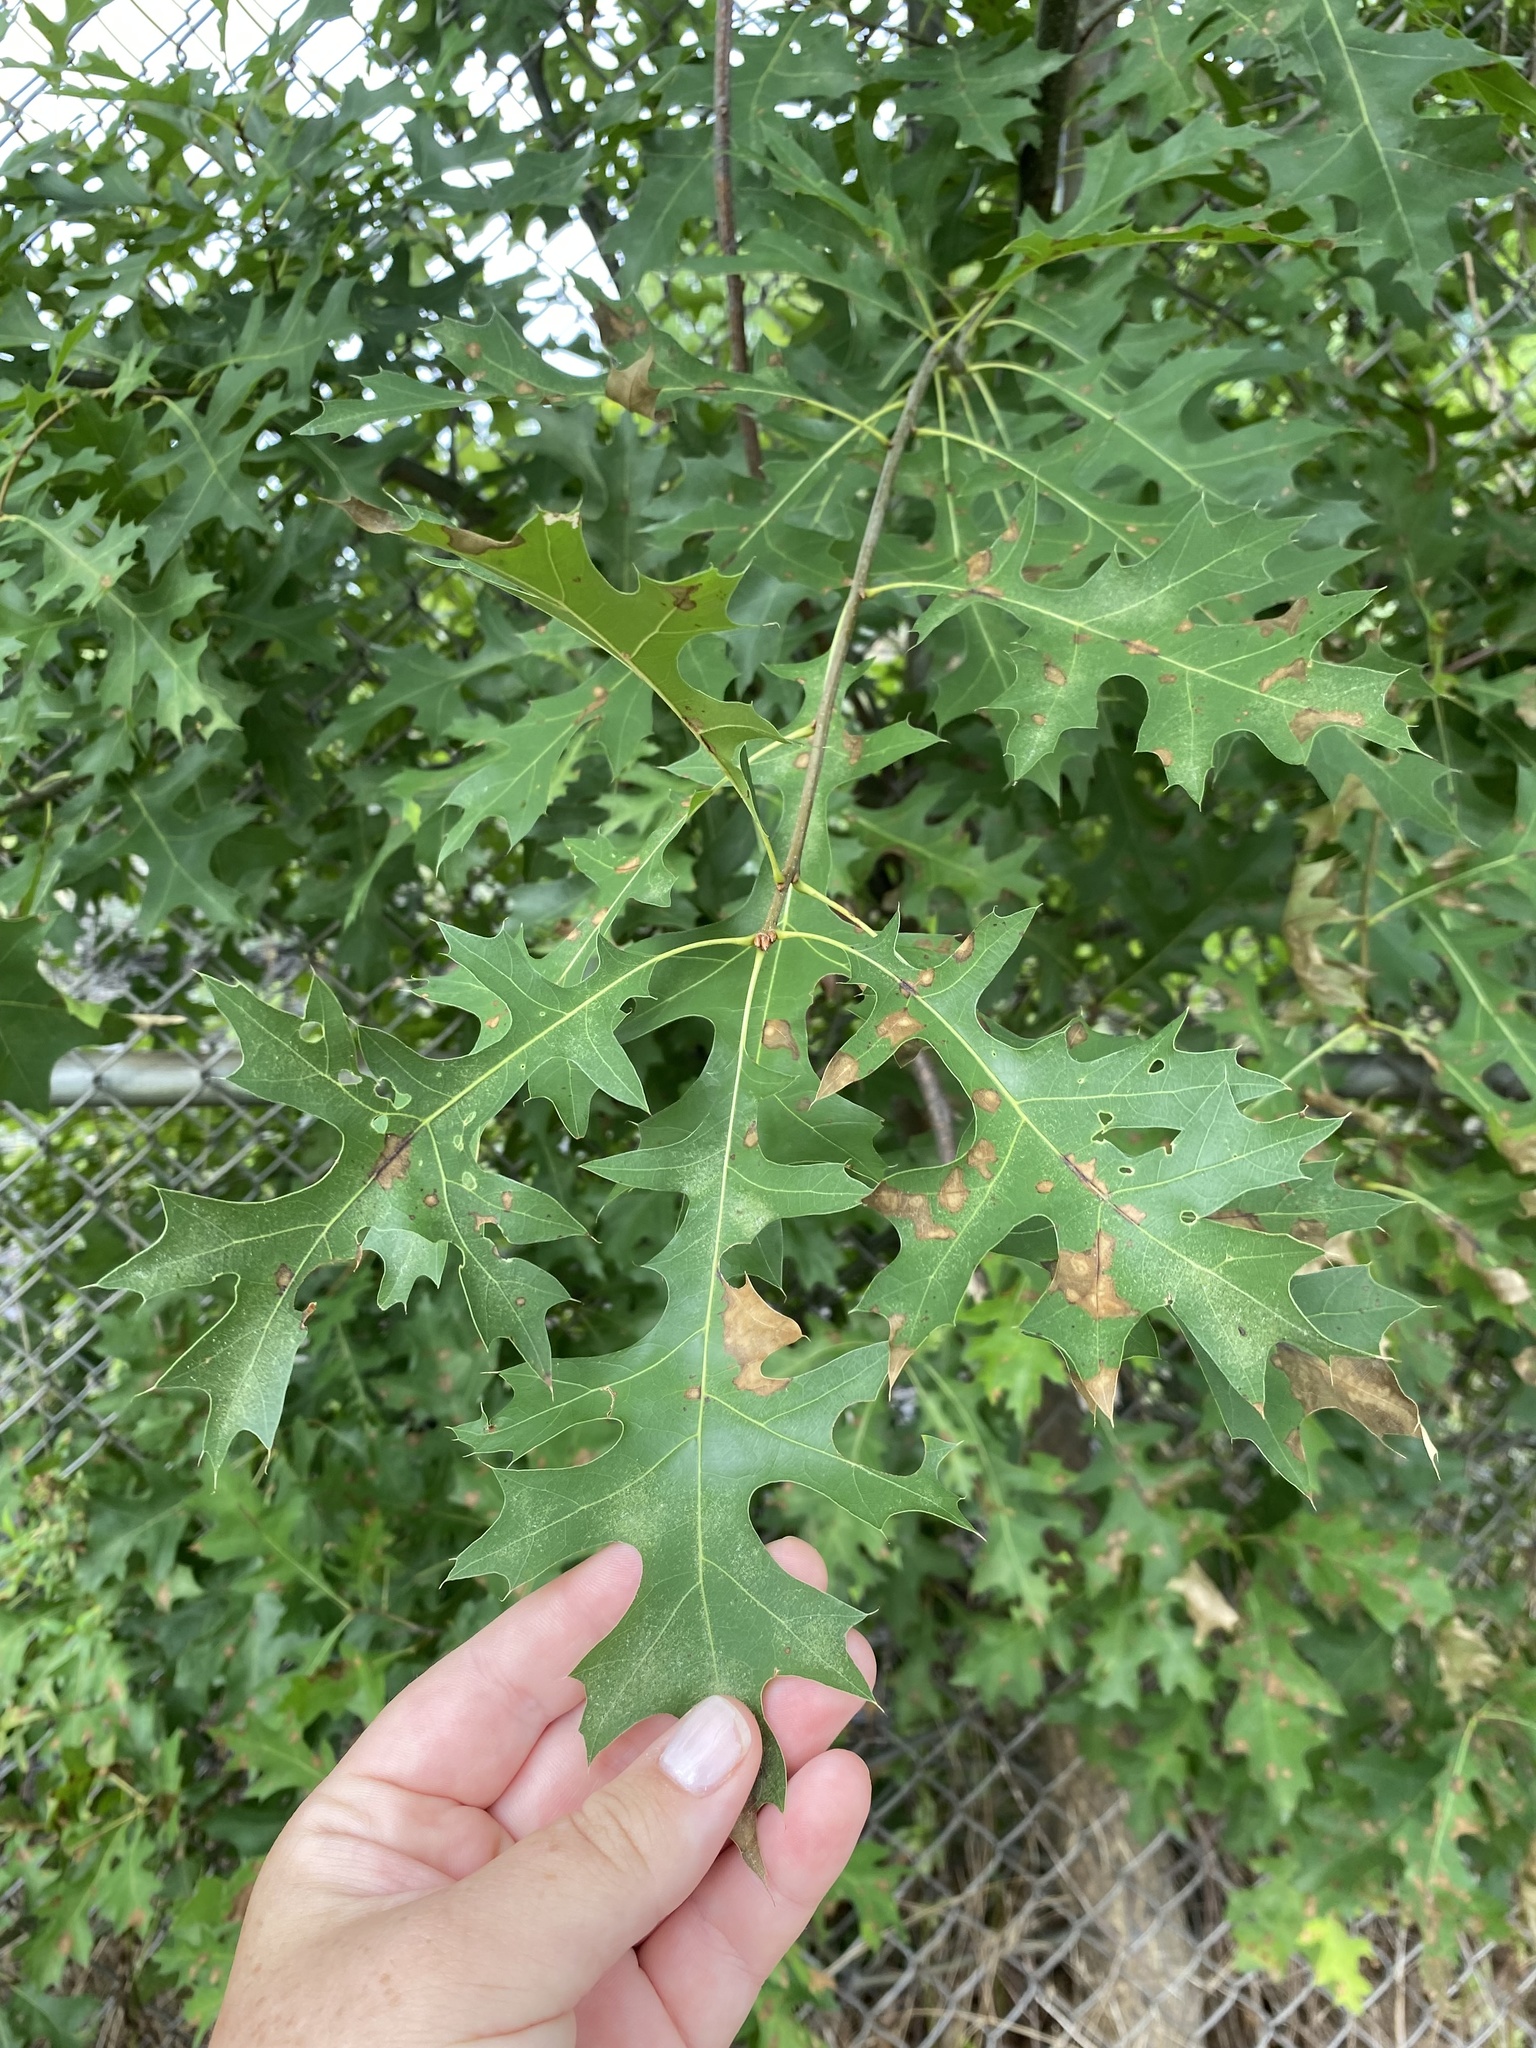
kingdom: Plantae
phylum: Tracheophyta
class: Magnoliopsida
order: Fagales
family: Fagaceae
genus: Quercus
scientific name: Quercus coccinea
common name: Scarlet oak
